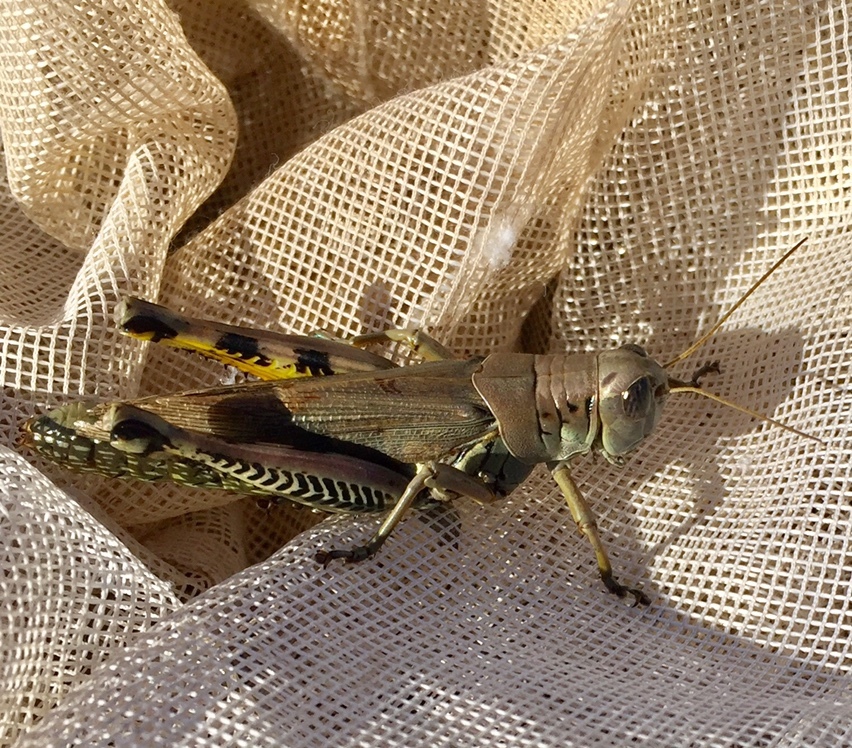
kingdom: Animalia
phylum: Arthropoda
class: Insecta
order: Orthoptera
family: Acrididae
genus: Melanoplus
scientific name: Melanoplus differentialis
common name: Differential grasshopper
